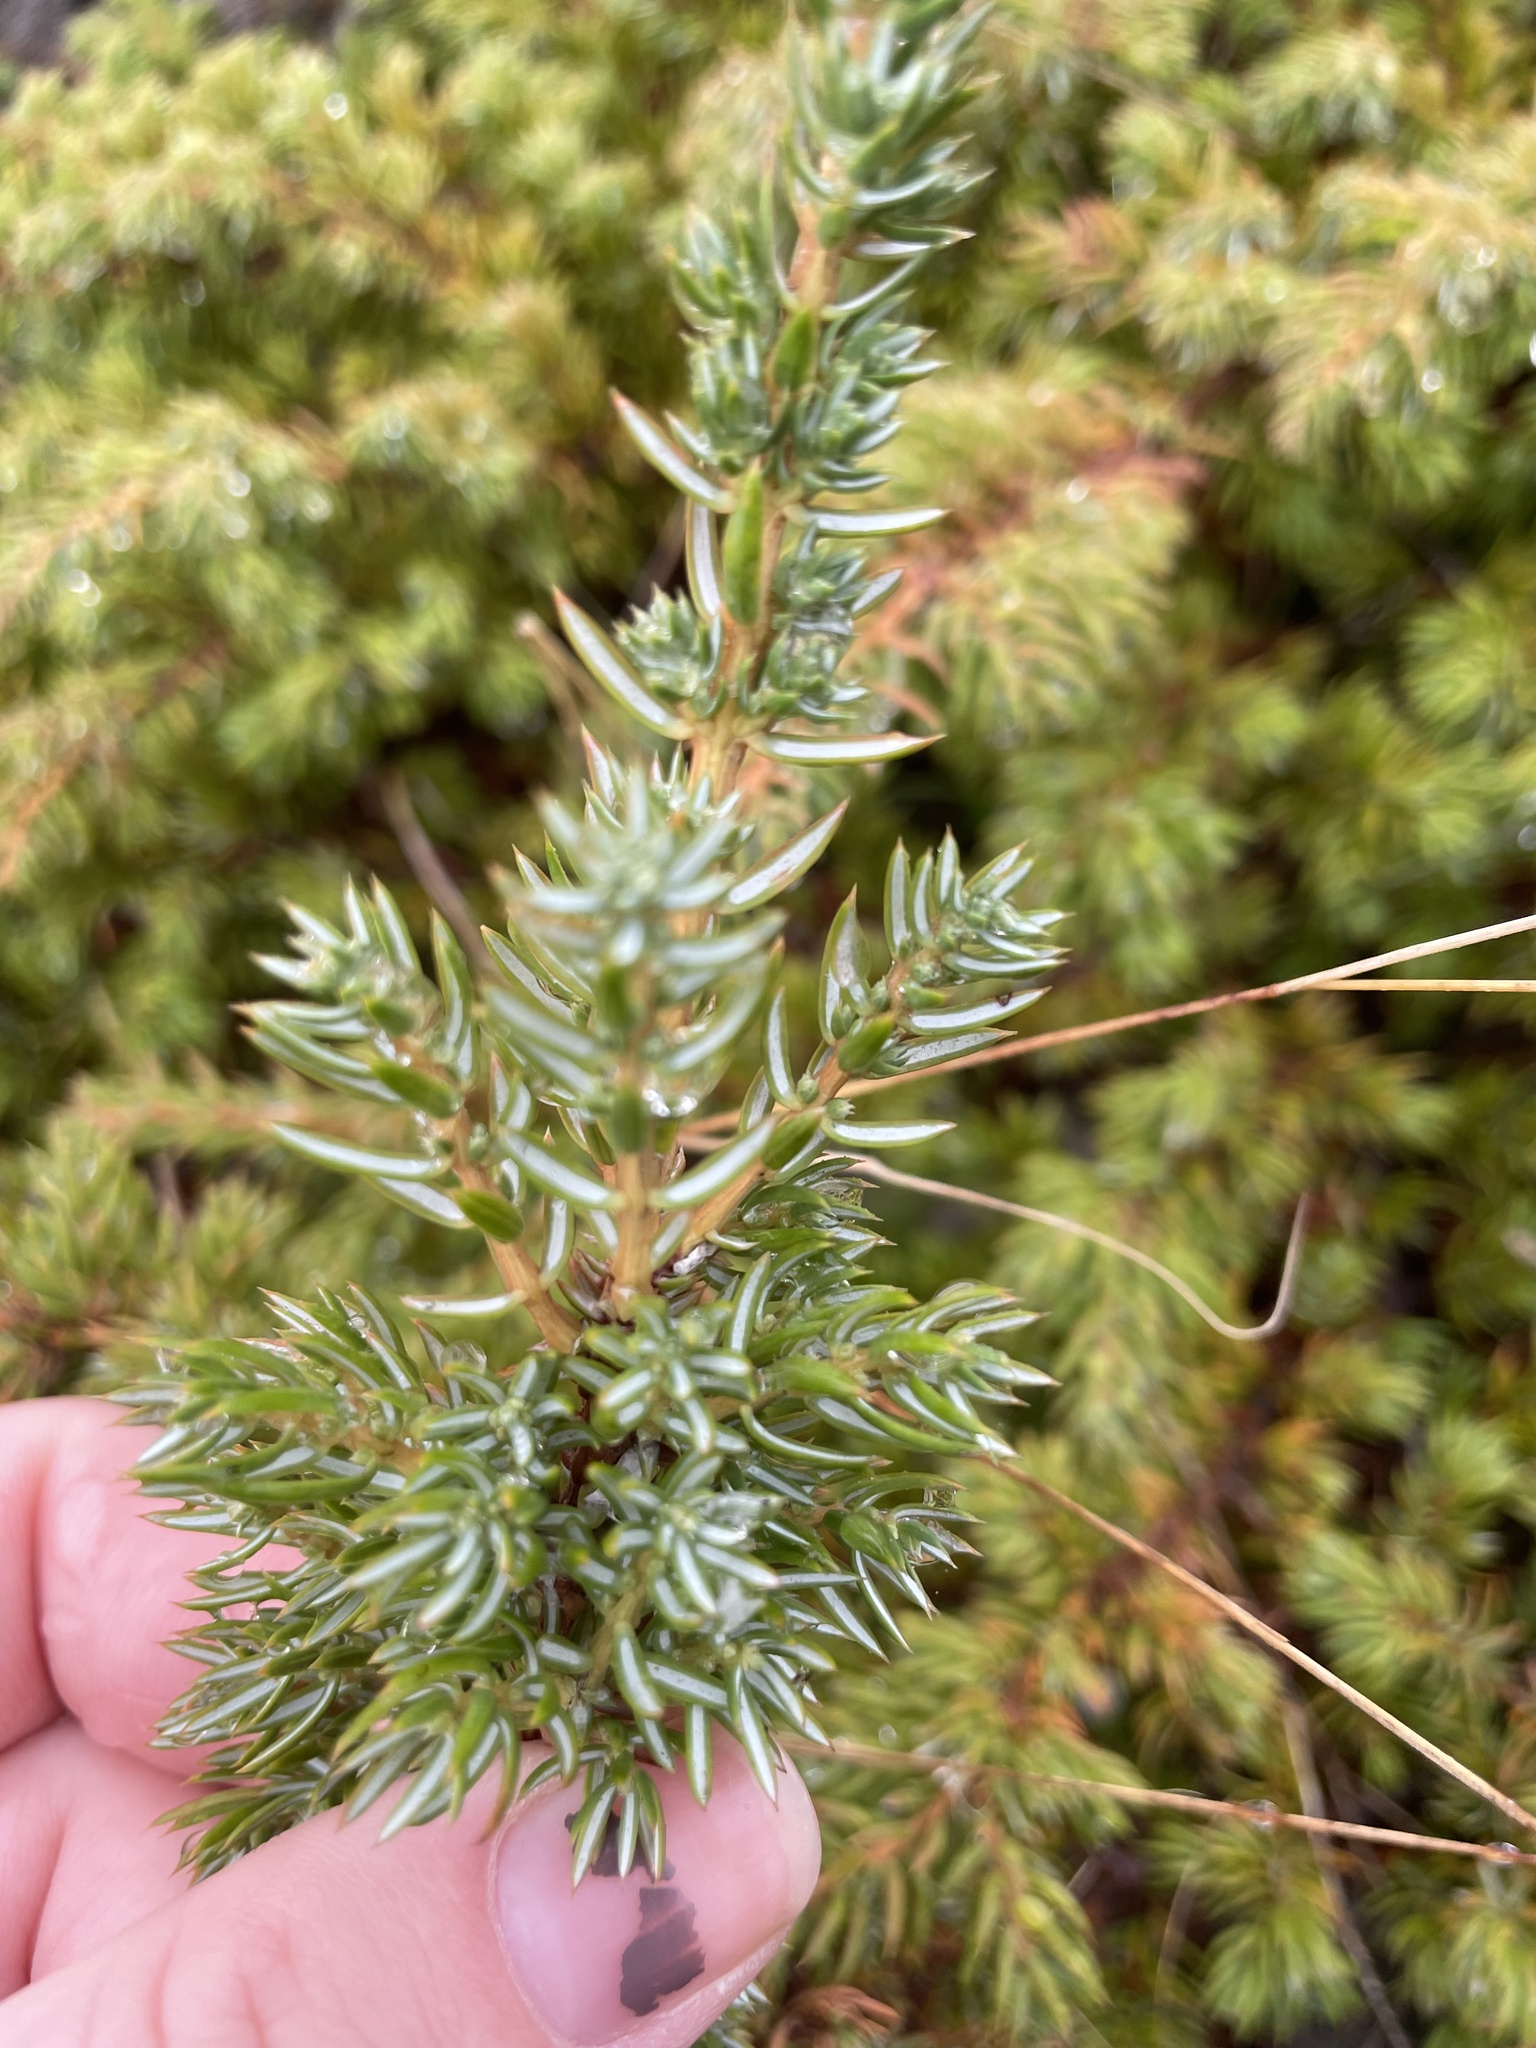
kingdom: Plantae
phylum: Tracheophyta
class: Pinopsida
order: Pinales
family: Cupressaceae
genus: Juniperus
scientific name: Juniperus communis
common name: Common juniper
